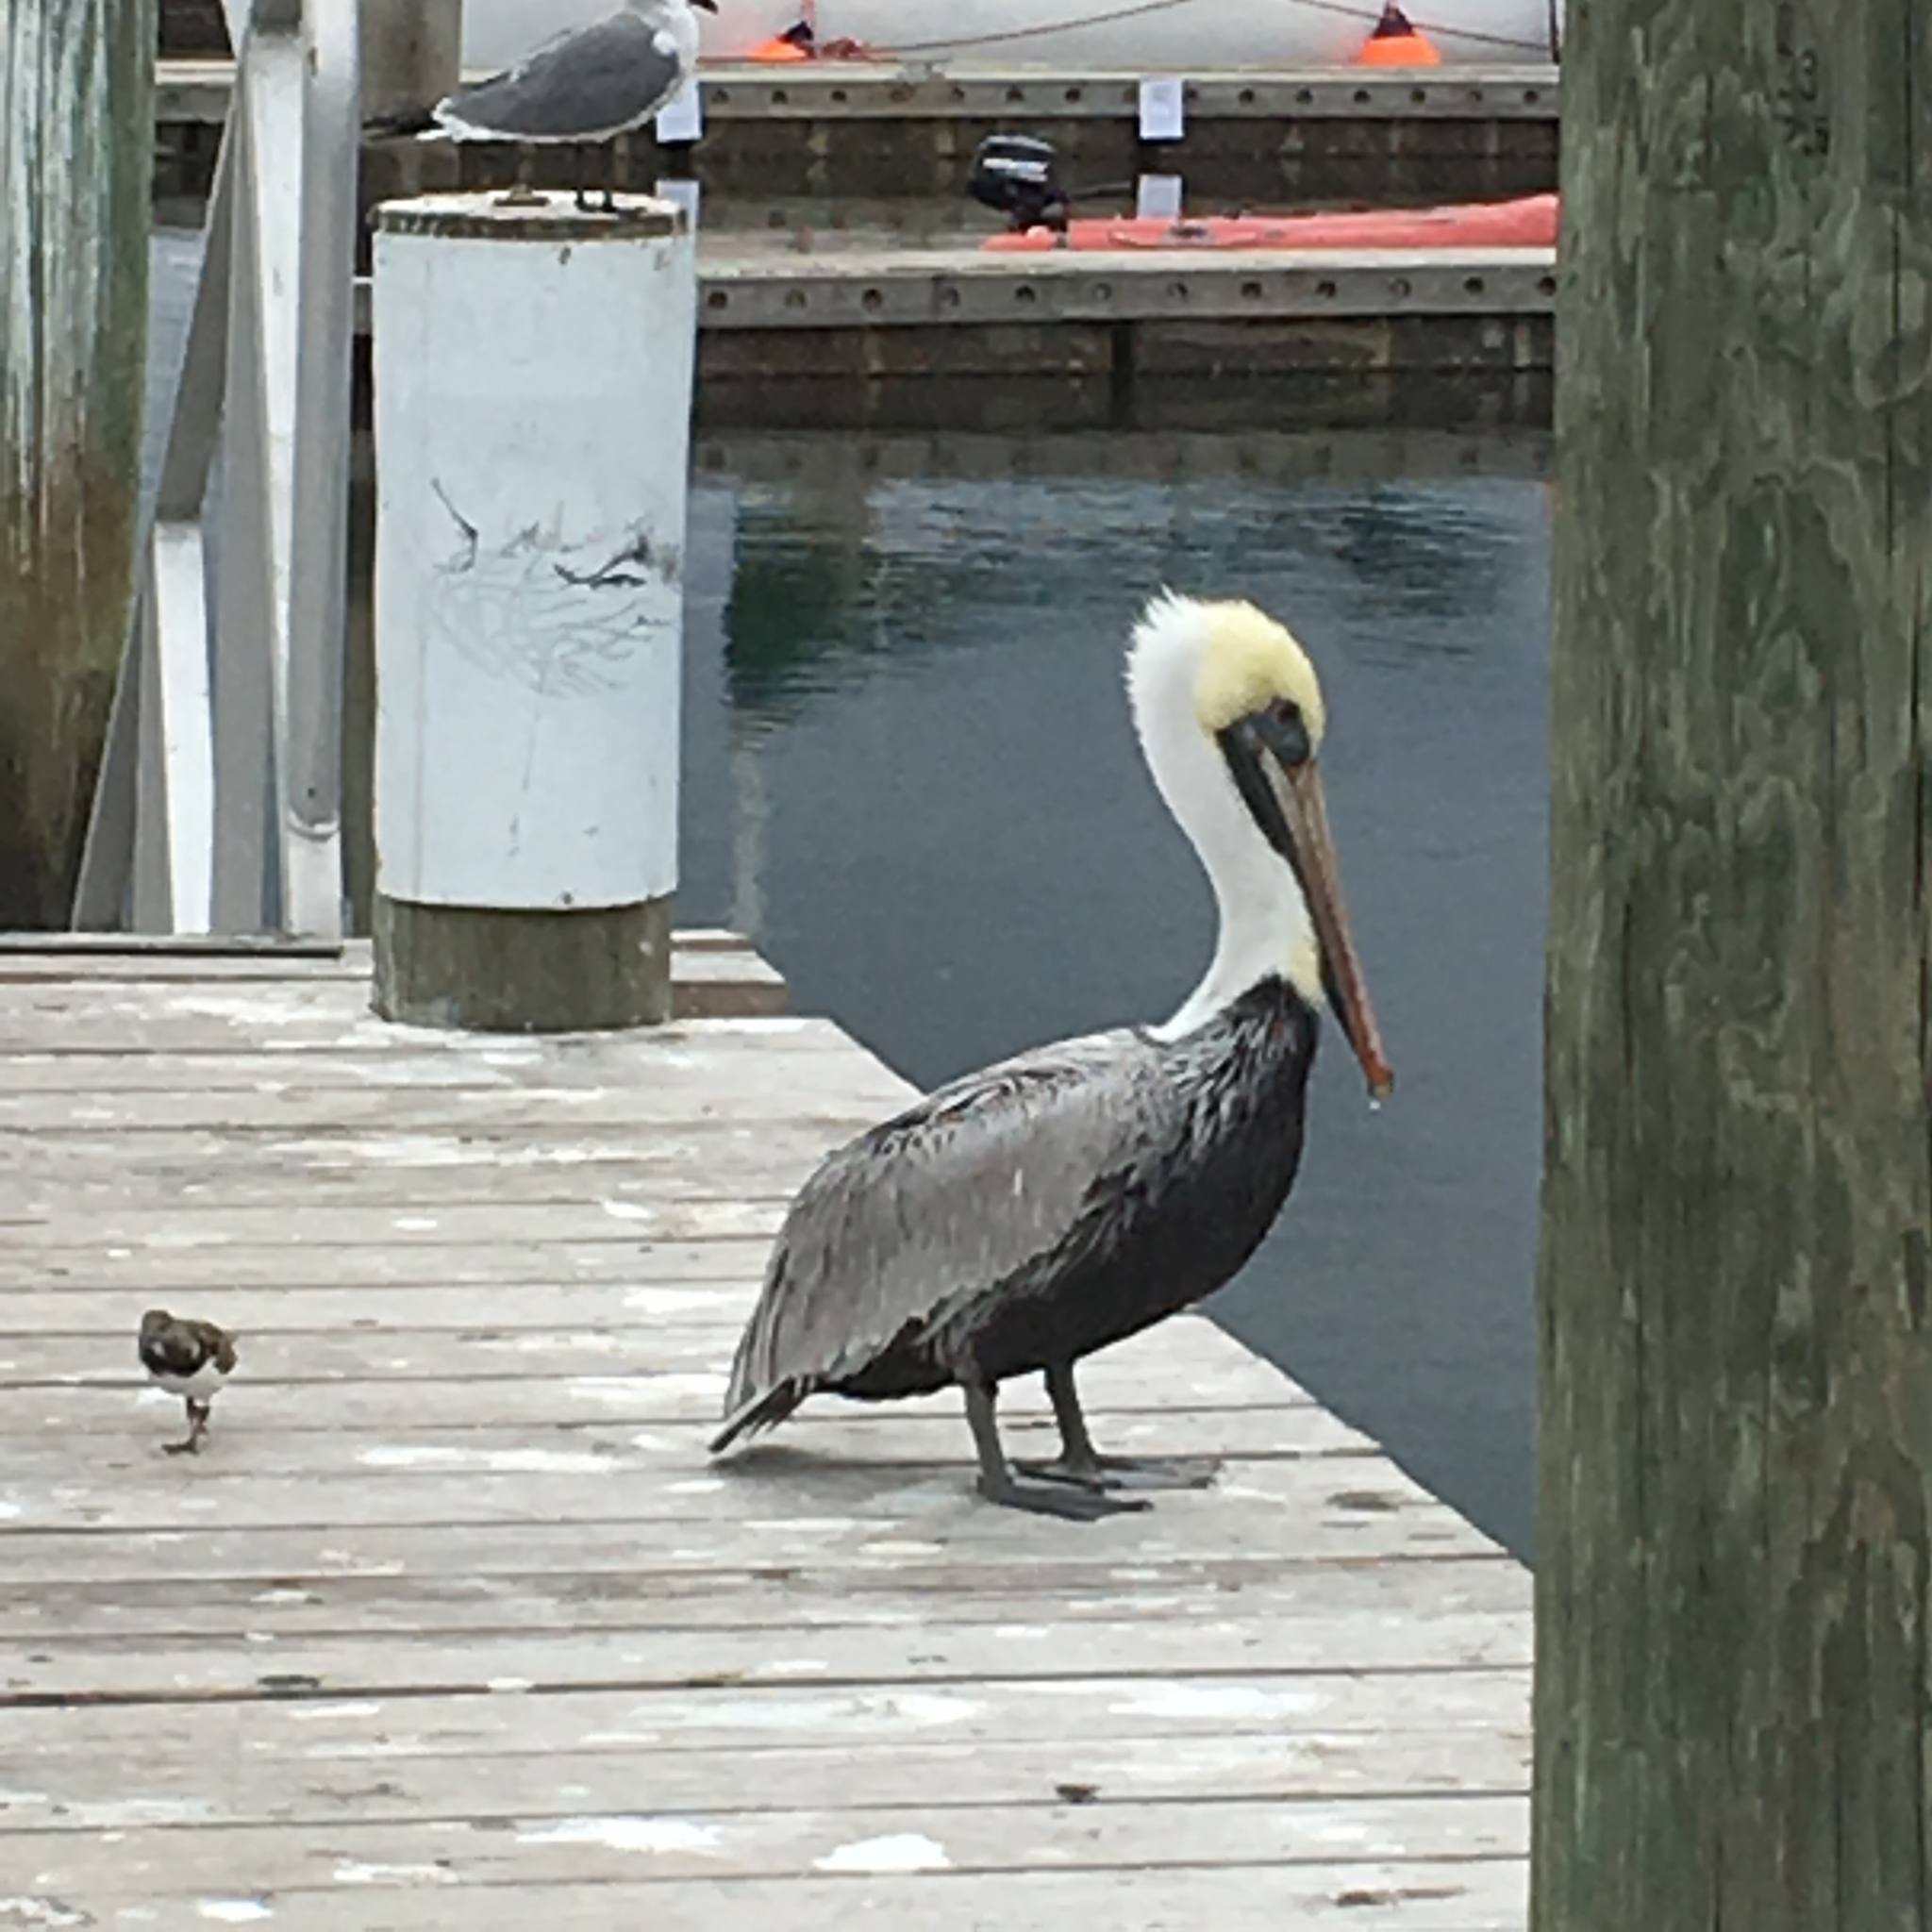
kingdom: Animalia
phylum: Chordata
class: Aves
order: Pelecaniformes
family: Pelecanidae
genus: Pelecanus
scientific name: Pelecanus occidentalis
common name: Brown pelican
